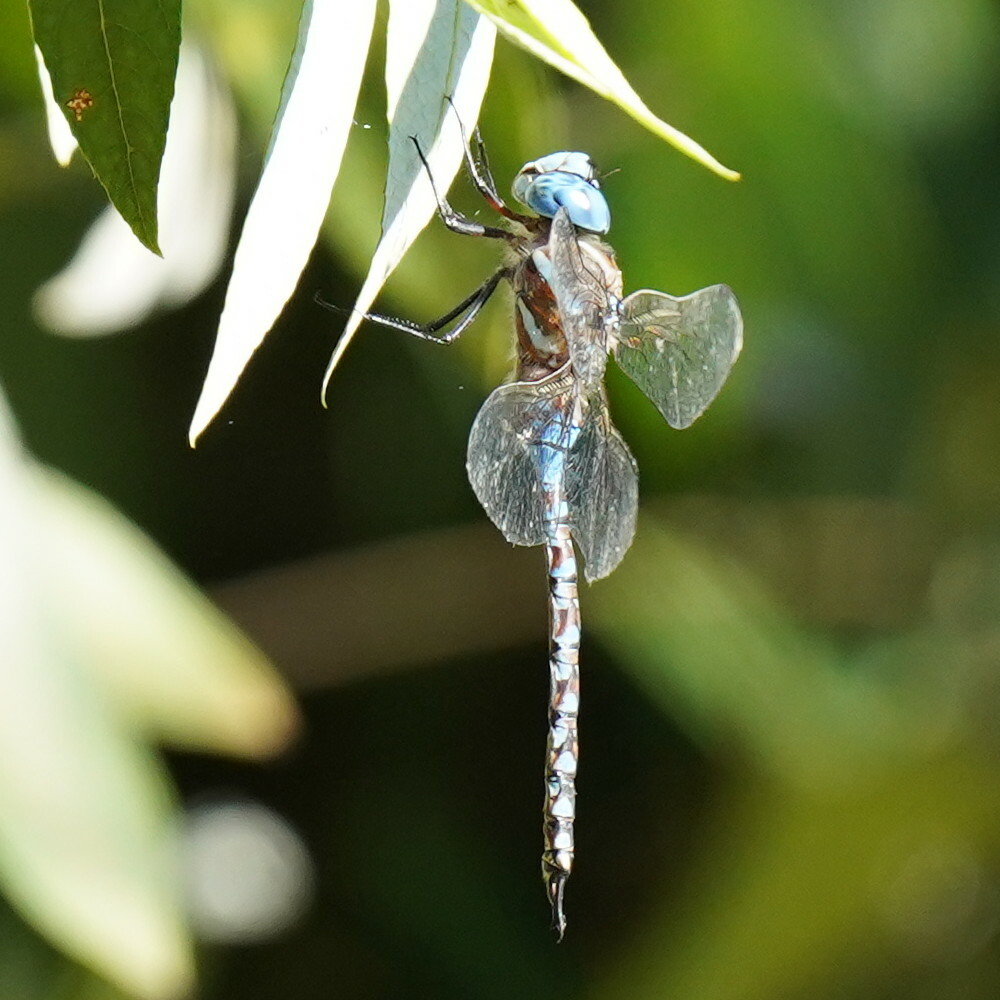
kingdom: Animalia
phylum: Arthropoda
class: Insecta
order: Odonata
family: Aeshnidae
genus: Rhionaeschna
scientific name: Rhionaeschna multicolor
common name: Blue-eyed darner
